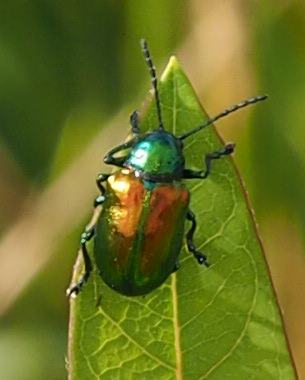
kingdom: Animalia
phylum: Arthropoda
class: Insecta
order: Coleoptera
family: Chrysomelidae
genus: Chrysochus
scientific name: Chrysochus auratus
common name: Dogbane leaf beetle
